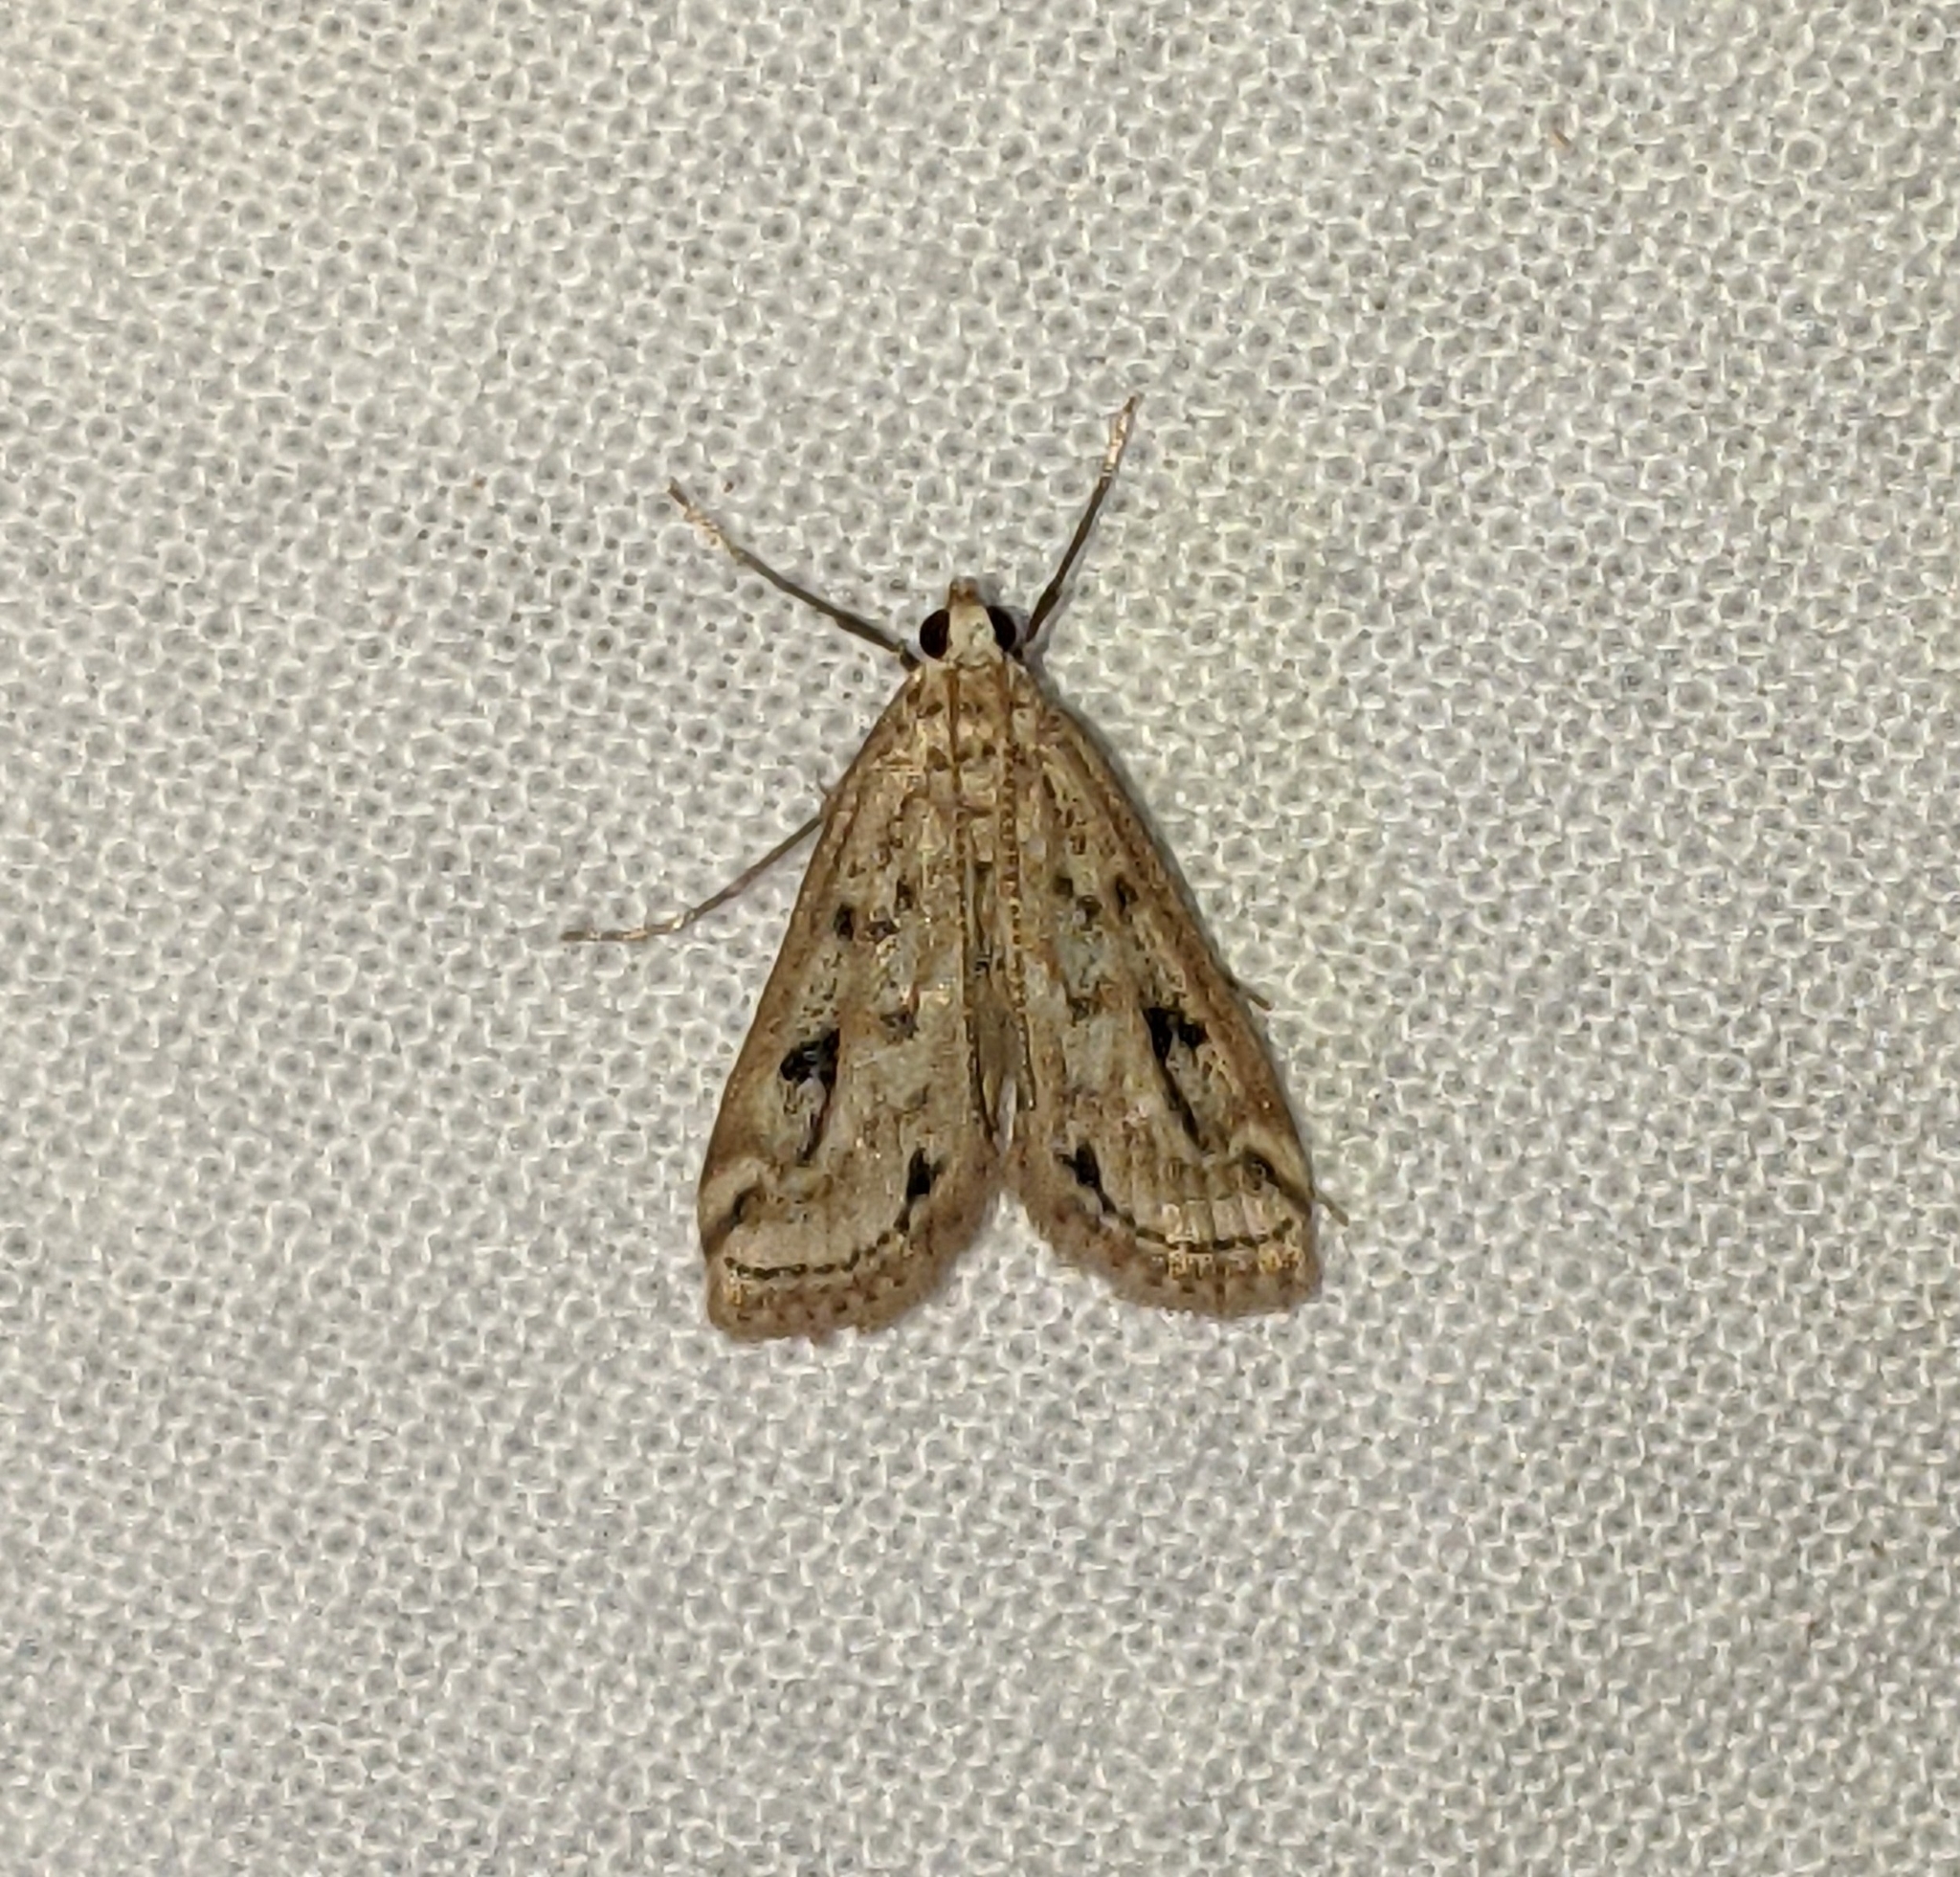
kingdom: Animalia
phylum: Arthropoda
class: Insecta
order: Lepidoptera
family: Crambidae
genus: Parapoynx
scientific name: Parapoynx allionealis
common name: Bladderwort casemaker
